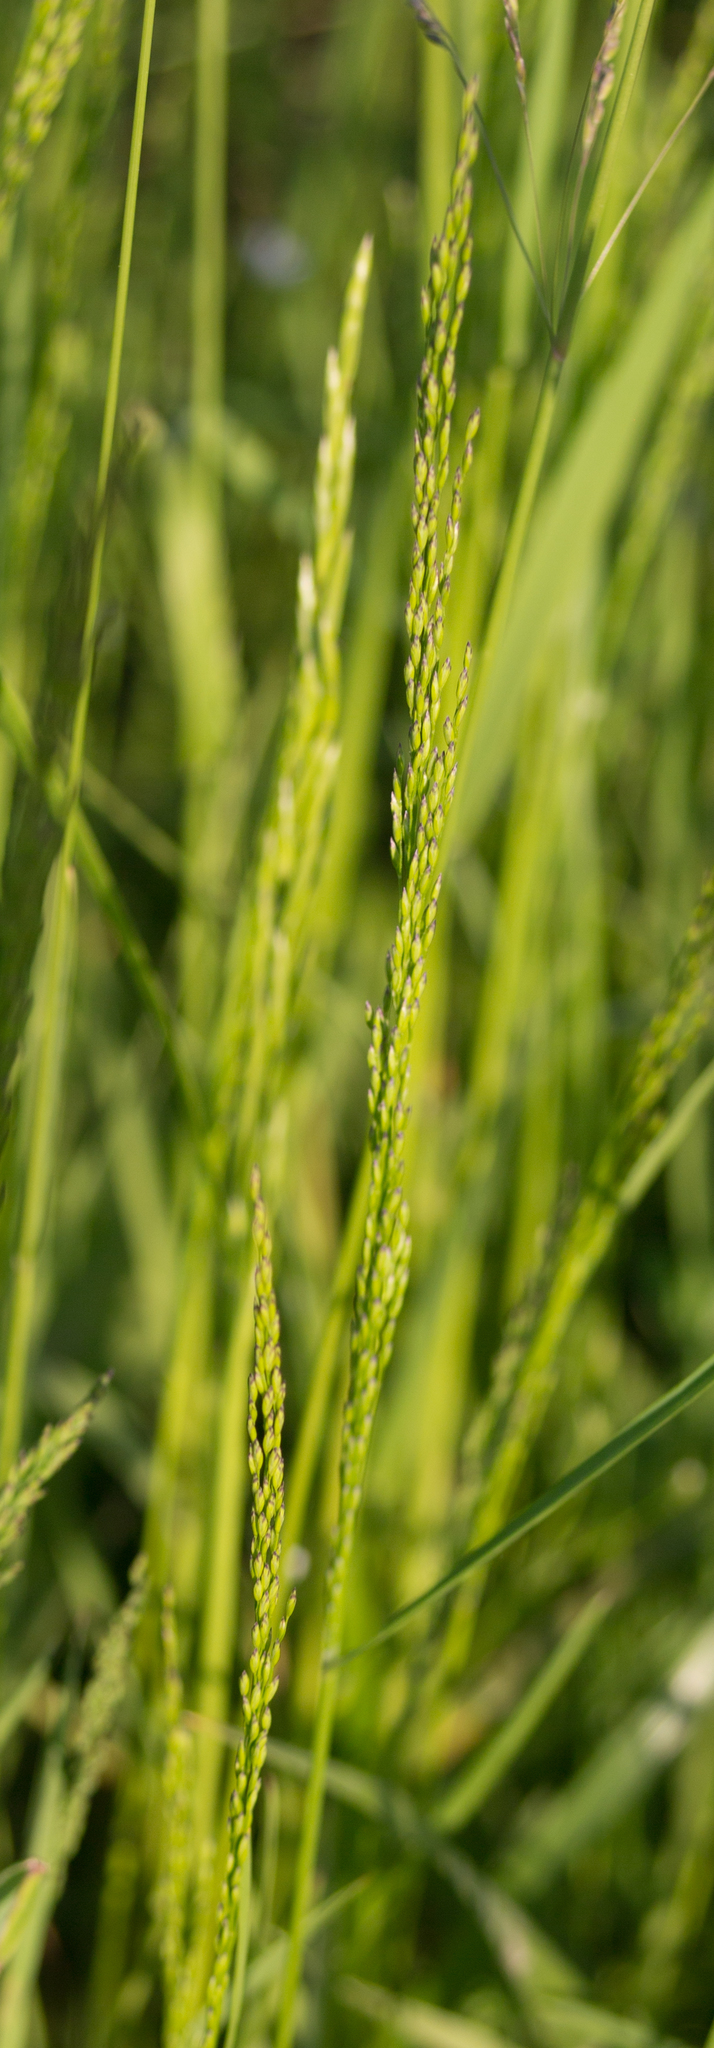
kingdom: Plantae
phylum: Tracheophyta
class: Liliopsida
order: Poales
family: Poaceae
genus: Poa
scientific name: Poa palustris
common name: Swamp meadow-grass
